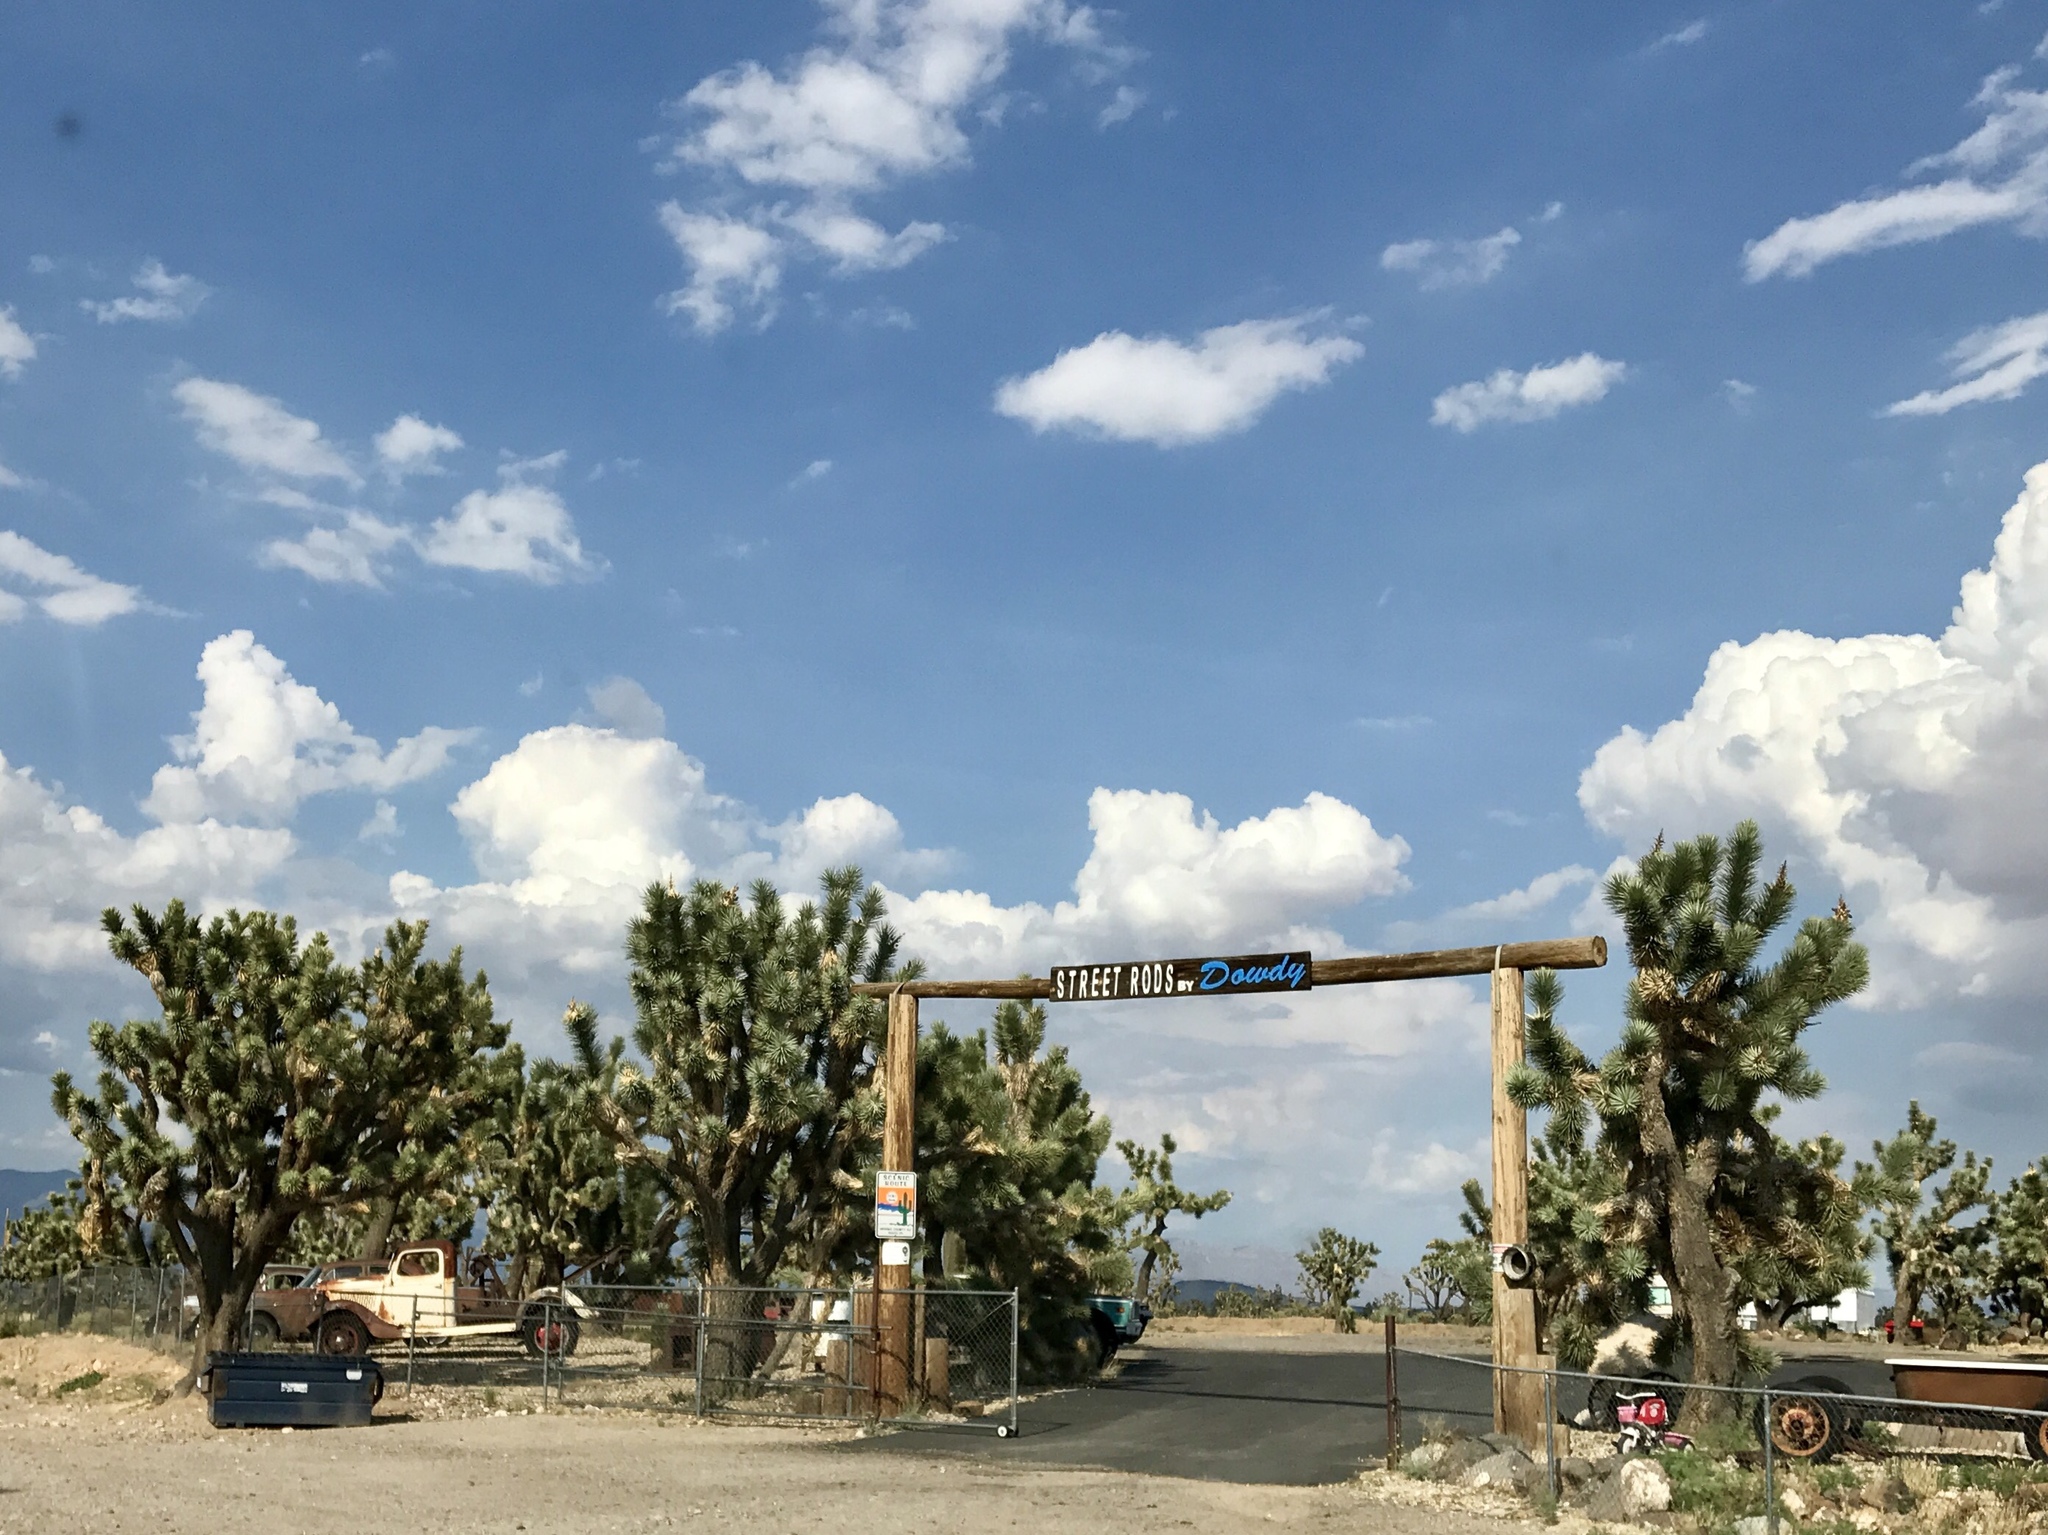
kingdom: Plantae
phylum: Tracheophyta
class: Liliopsida
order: Asparagales
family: Asparagaceae
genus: Yucca
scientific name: Yucca brevifolia
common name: Joshua tree
